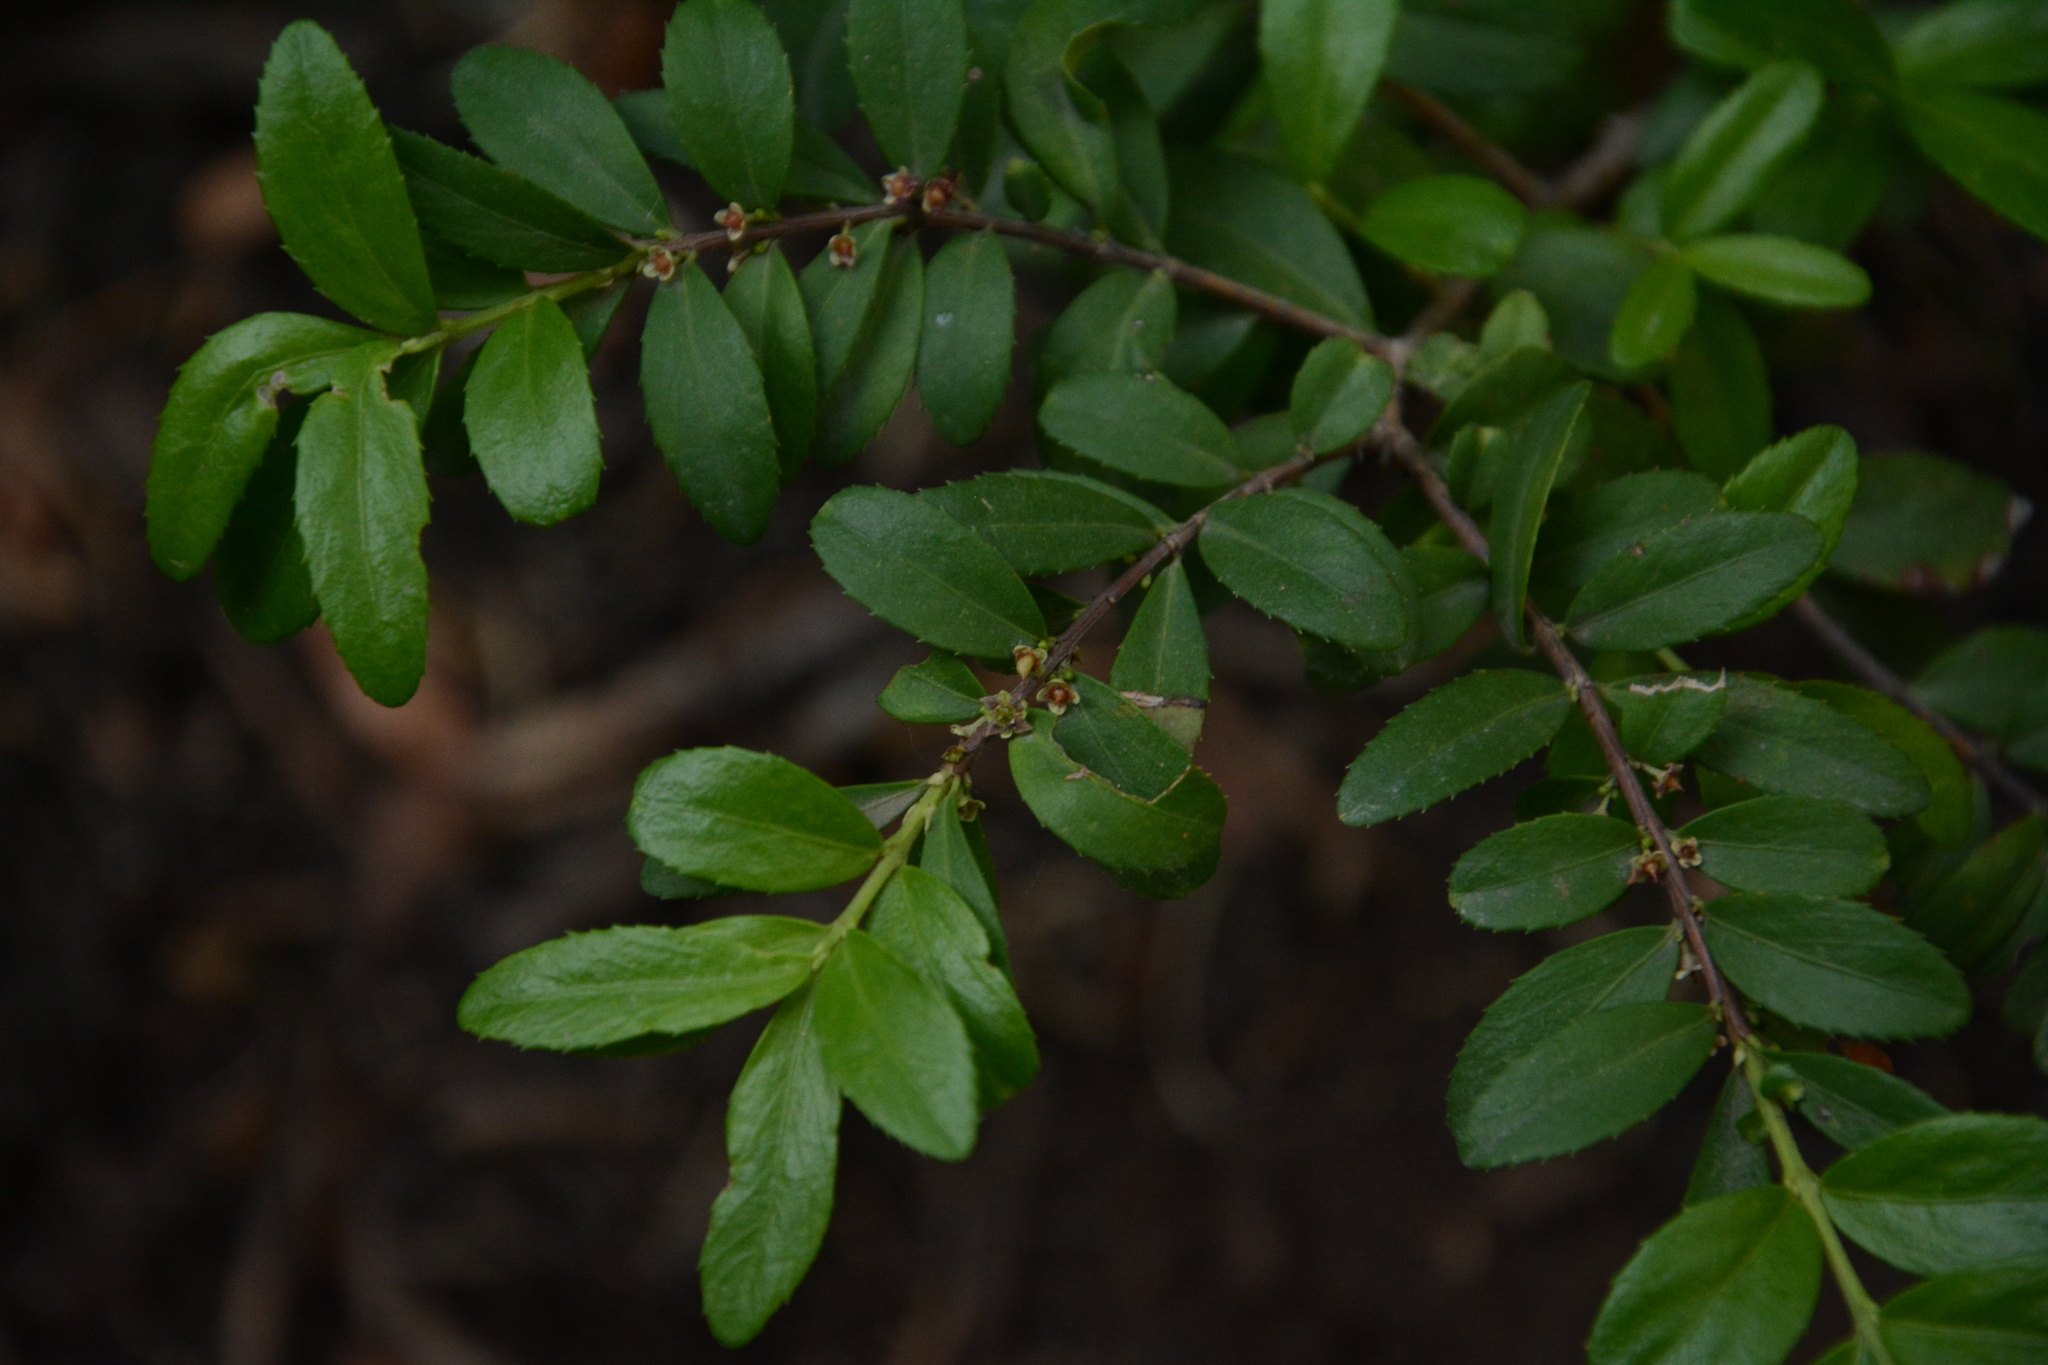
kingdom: Plantae
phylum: Tracheophyta
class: Magnoliopsida
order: Celastrales
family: Celastraceae
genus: Paxistima
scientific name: Paxistima myrsinites
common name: Mountain-lover
